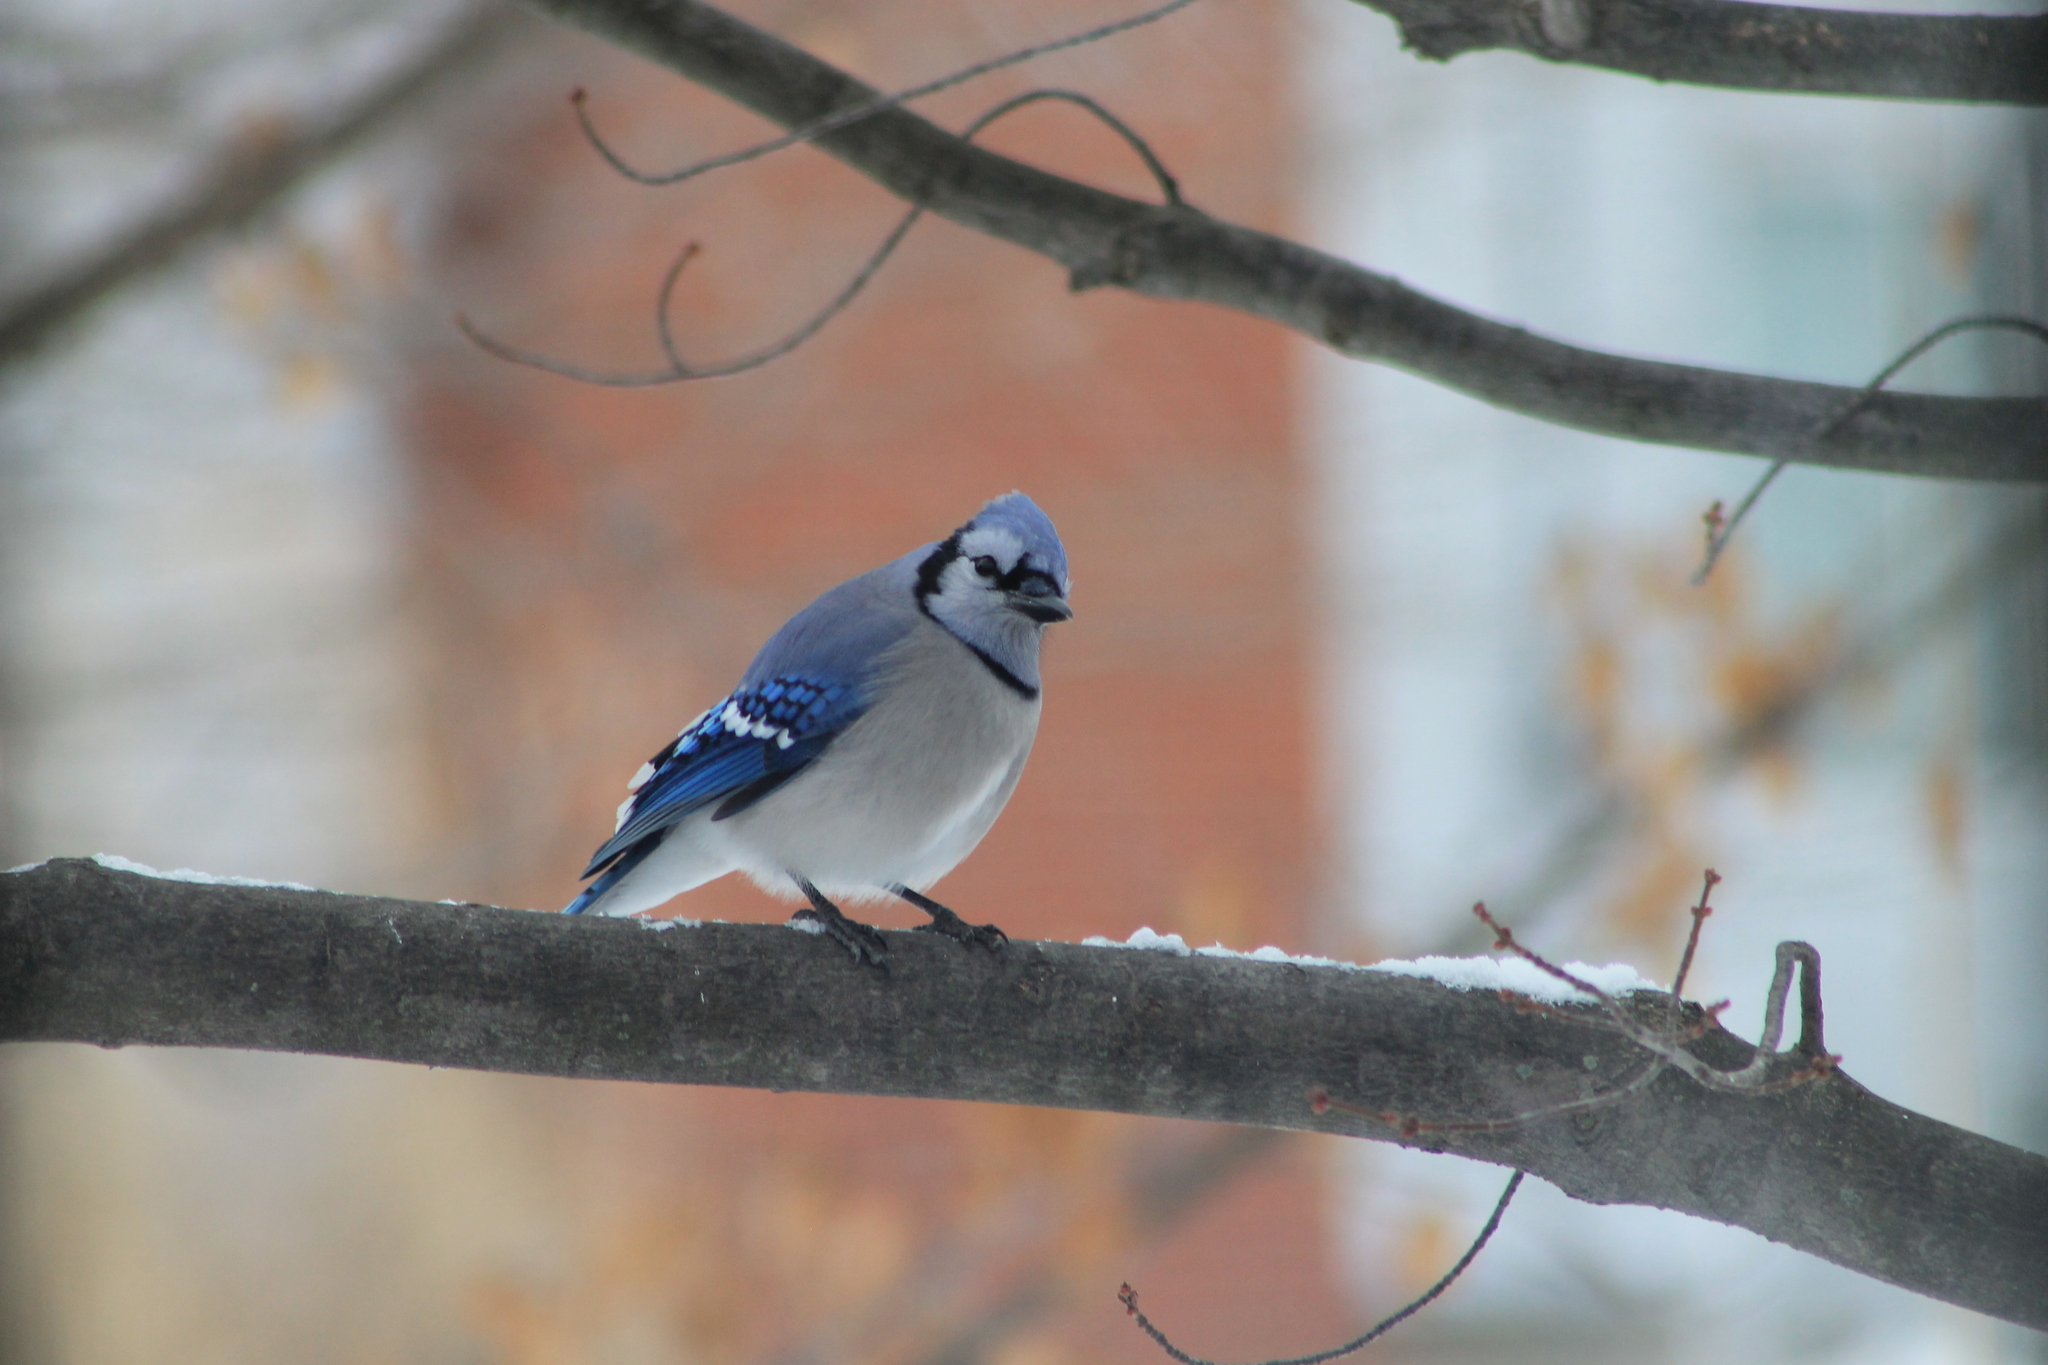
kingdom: Animalia
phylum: Chordata
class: Aves
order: Passeriformes
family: Corvidae
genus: Cyanocitta
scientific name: Cyanocitta cristata
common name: Blue jay
